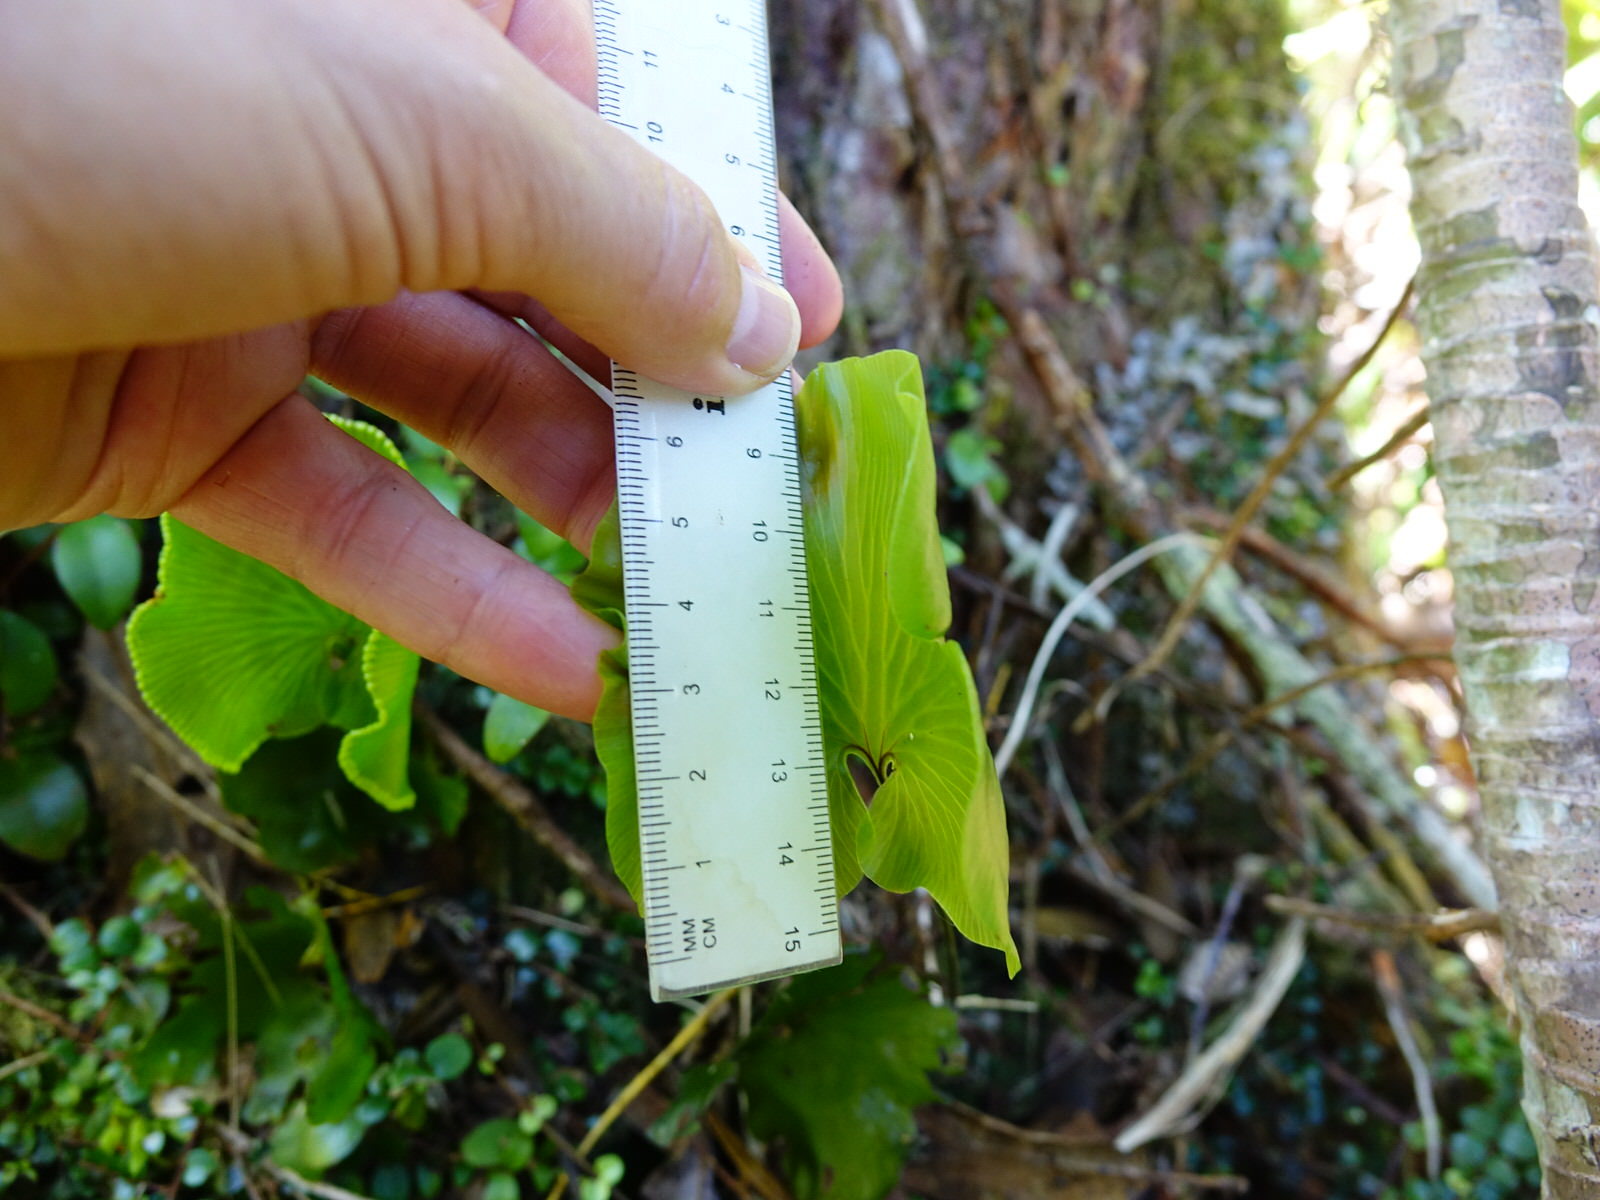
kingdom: Plantae
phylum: Tracheophyta
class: Polypodiopsida
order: Hymenophyllales
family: Hymenophyllaceae
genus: Hymenophyllum
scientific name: Hymenophyllum nephrophyllum
